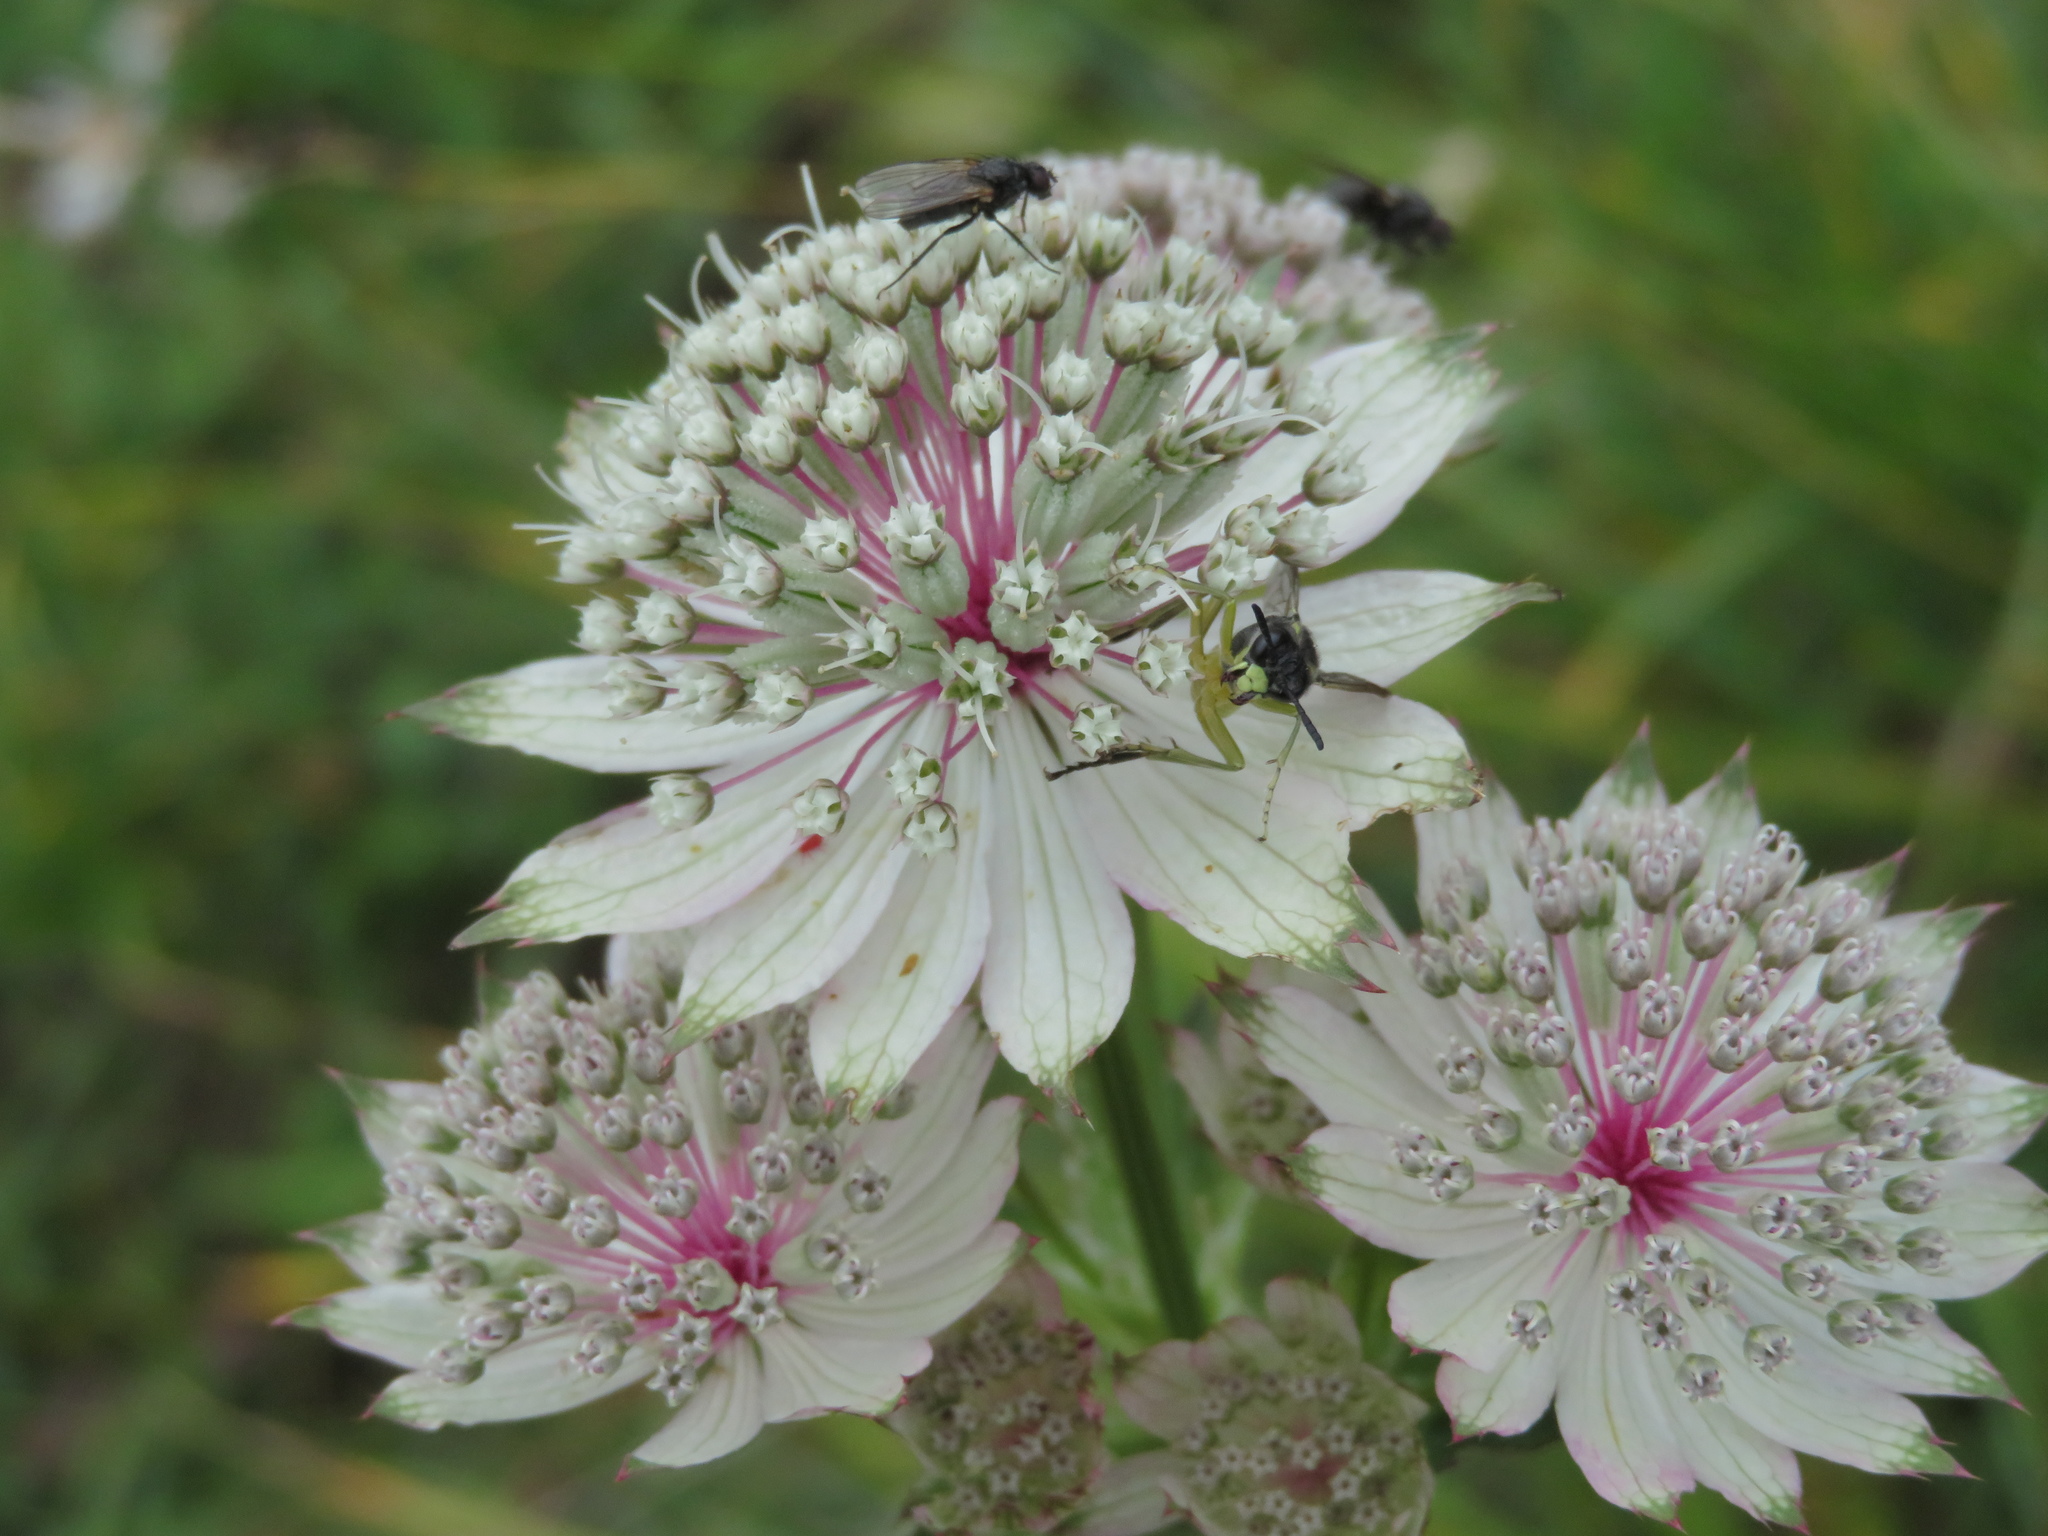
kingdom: Plantae
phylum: Tracheophyta
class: Magnoliopsida
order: Apiales
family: Apiaceae
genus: Astrantia
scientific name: Astrantia major
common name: Greater masterwort
